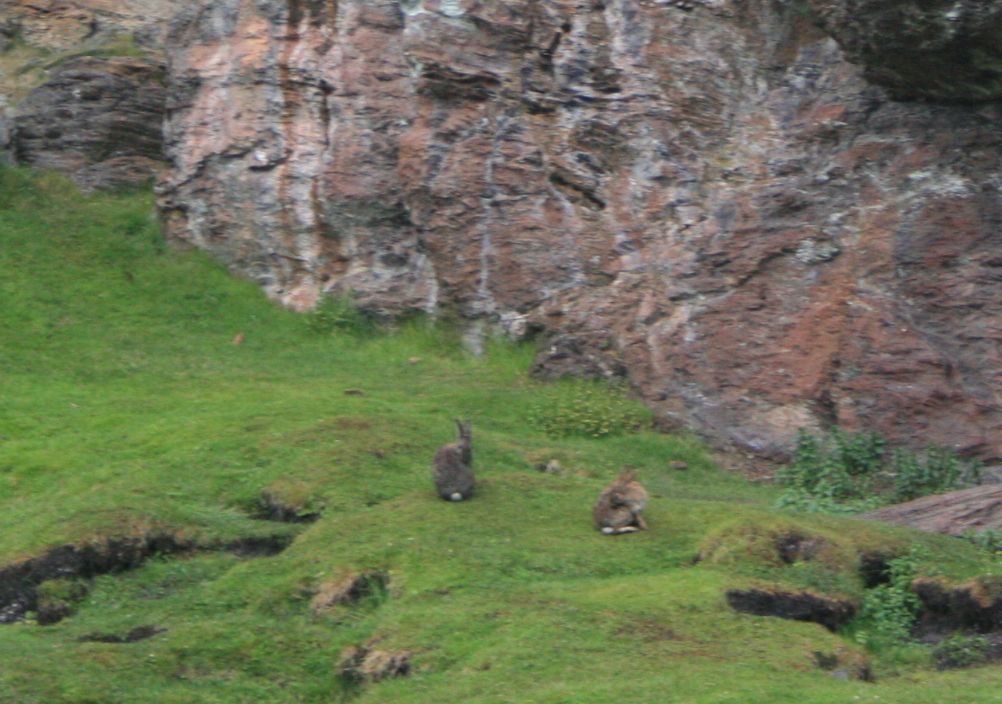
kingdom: Animalia
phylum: Chordata
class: Mammalia
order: Lagomorpha
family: Leporidae
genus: Oryctolagus
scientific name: Oryctolagus cuniculus
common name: European rabbit
